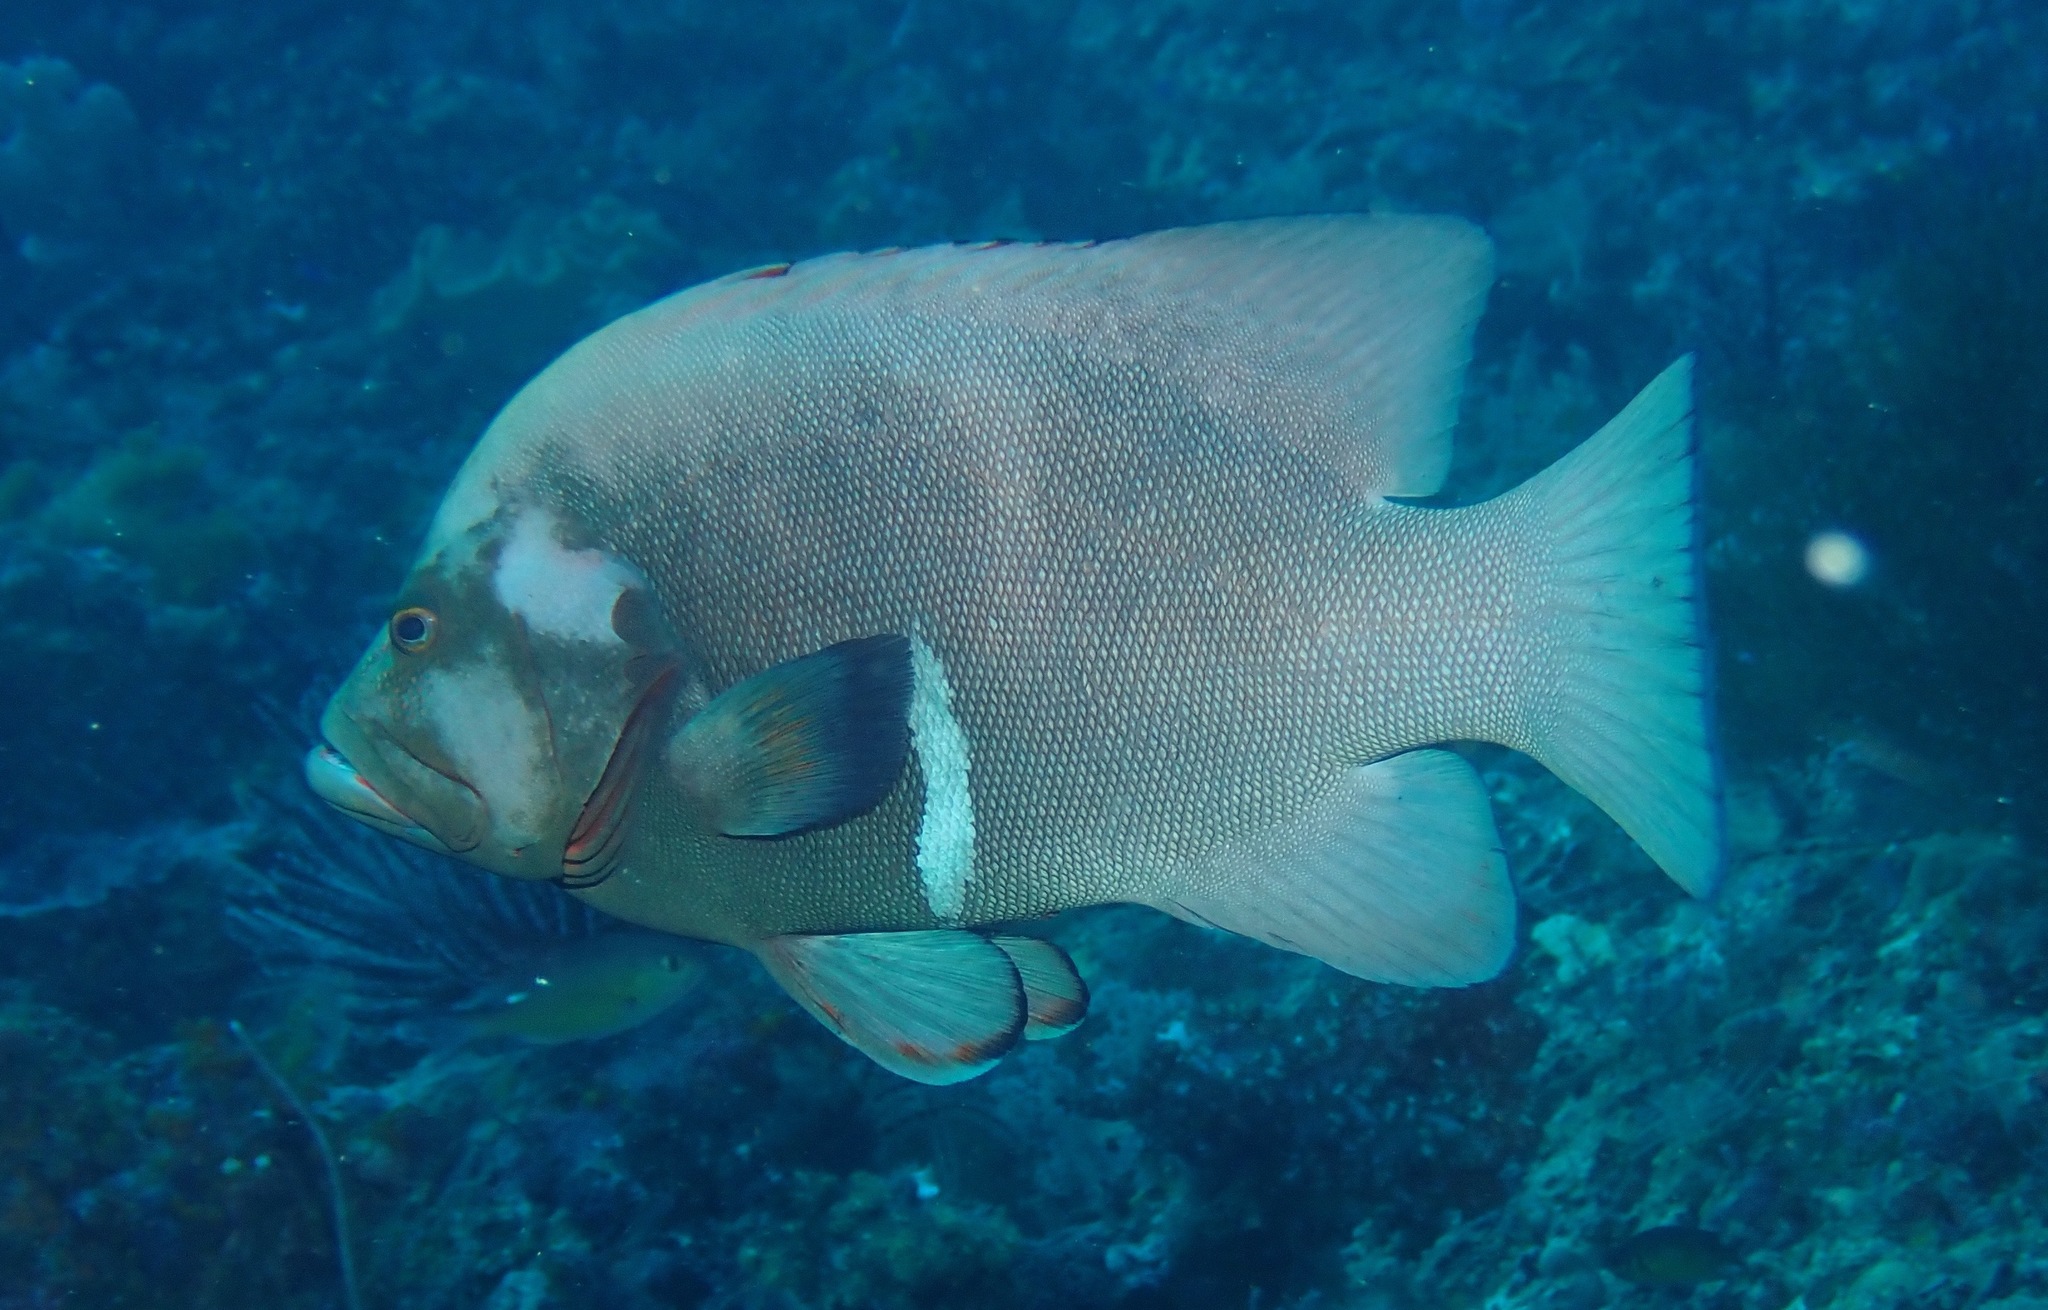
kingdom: Animalia
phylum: Chordata
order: Perciformes
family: Serranidae
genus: Aethaloperca
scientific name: Aethaloperca rogaa
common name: Redmouth grouper
